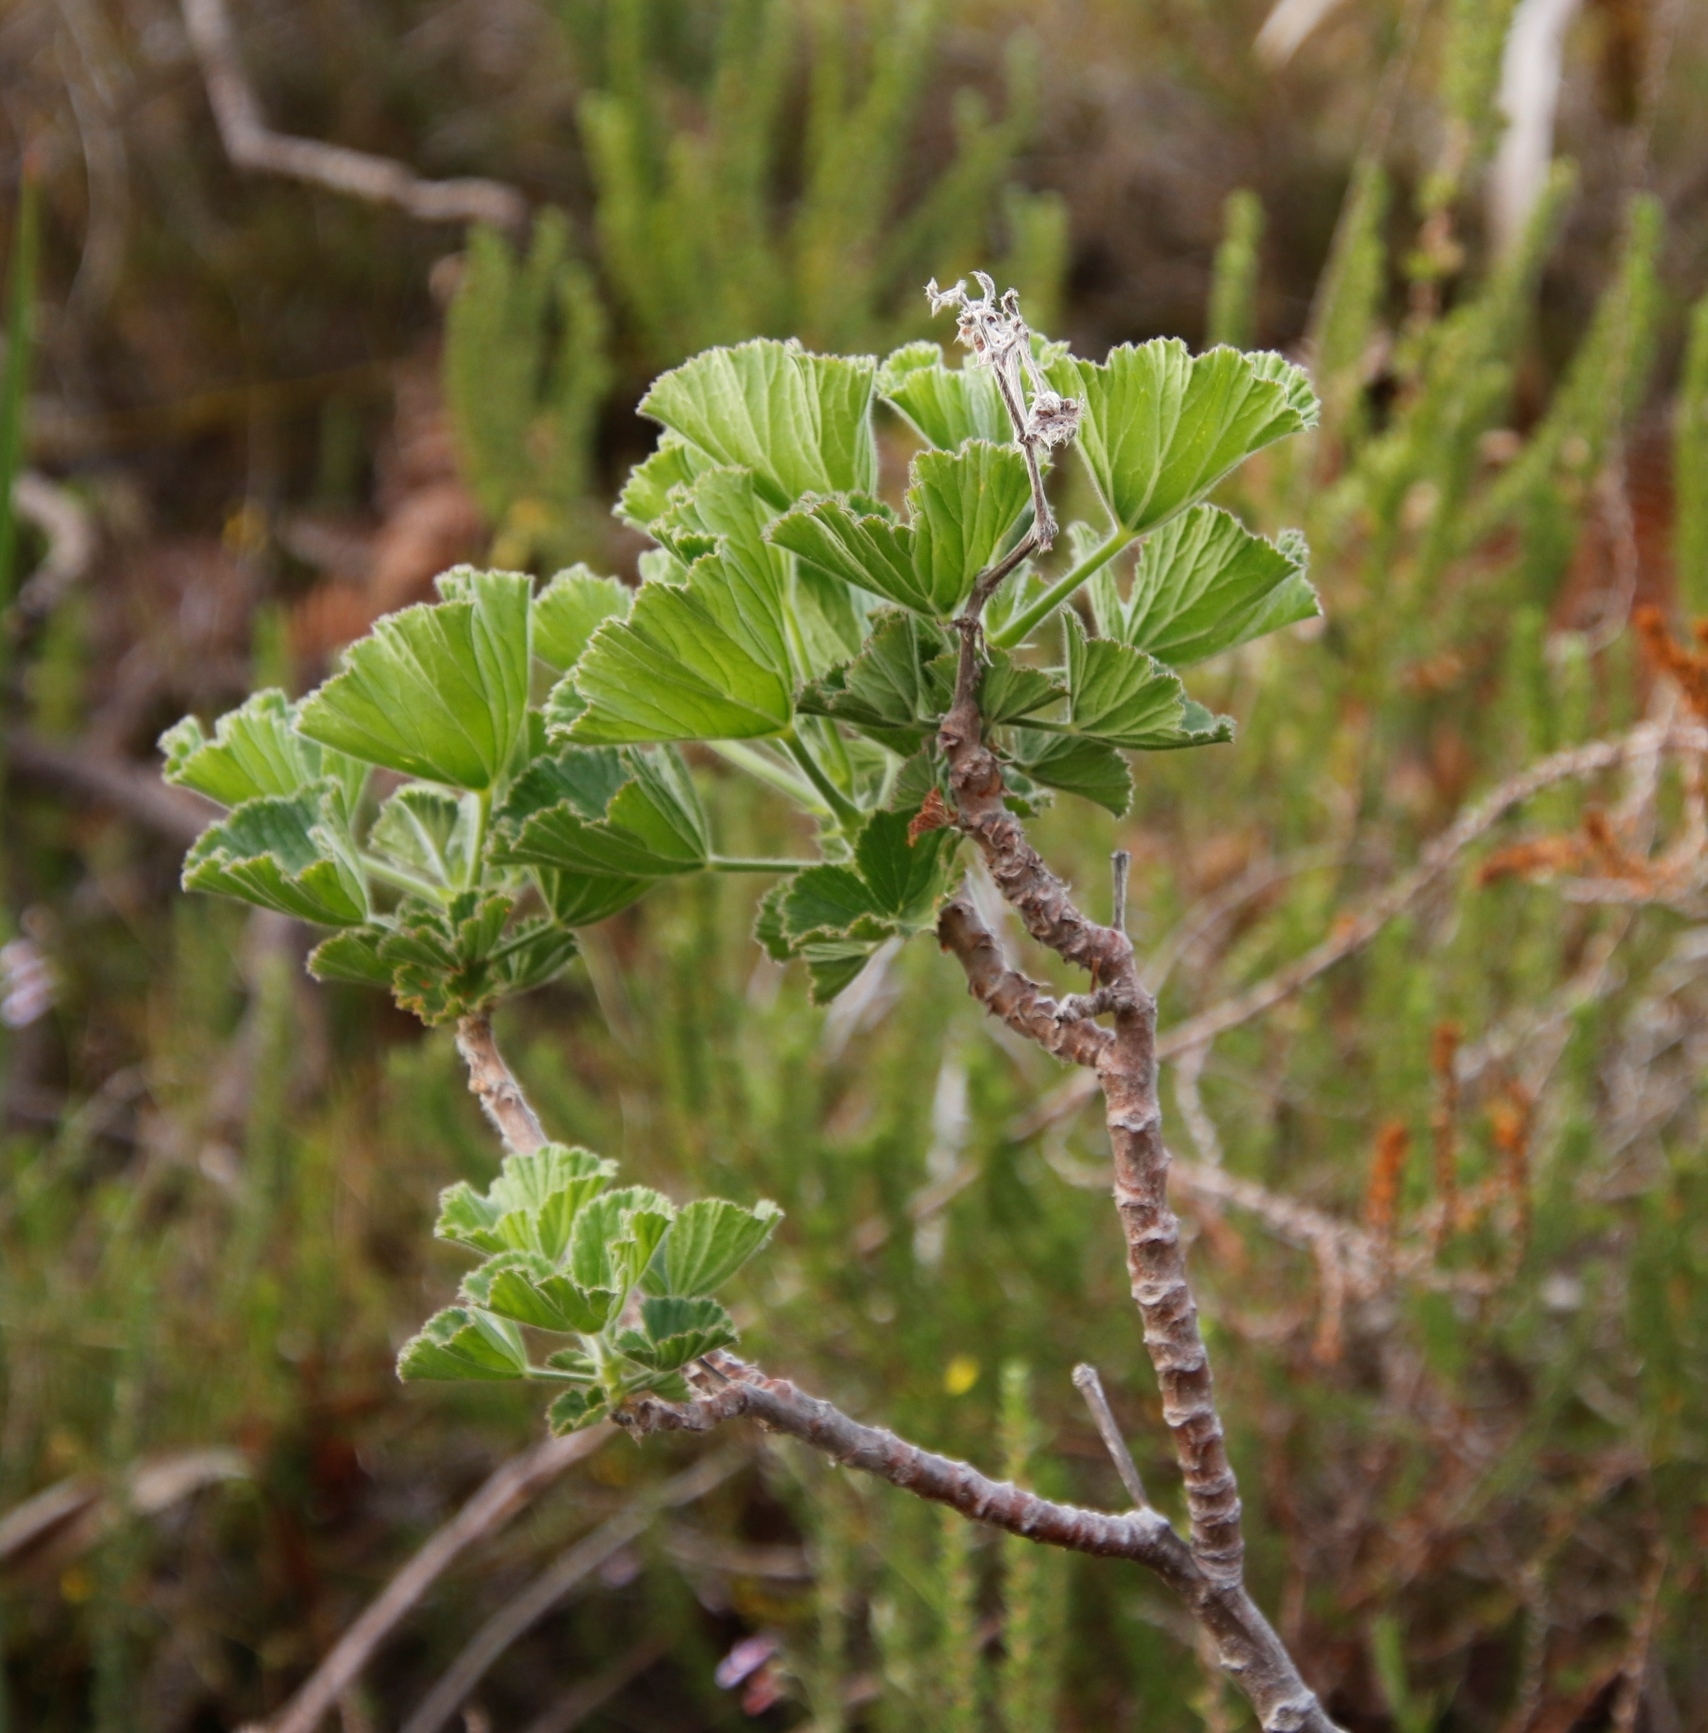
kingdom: Plantae
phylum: Tracheophyta
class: Magnoliopsida
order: Geraniales
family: Geraniaceae
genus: Pelargonium
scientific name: Pelargonium cucullatum
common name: Tree pelargonium
